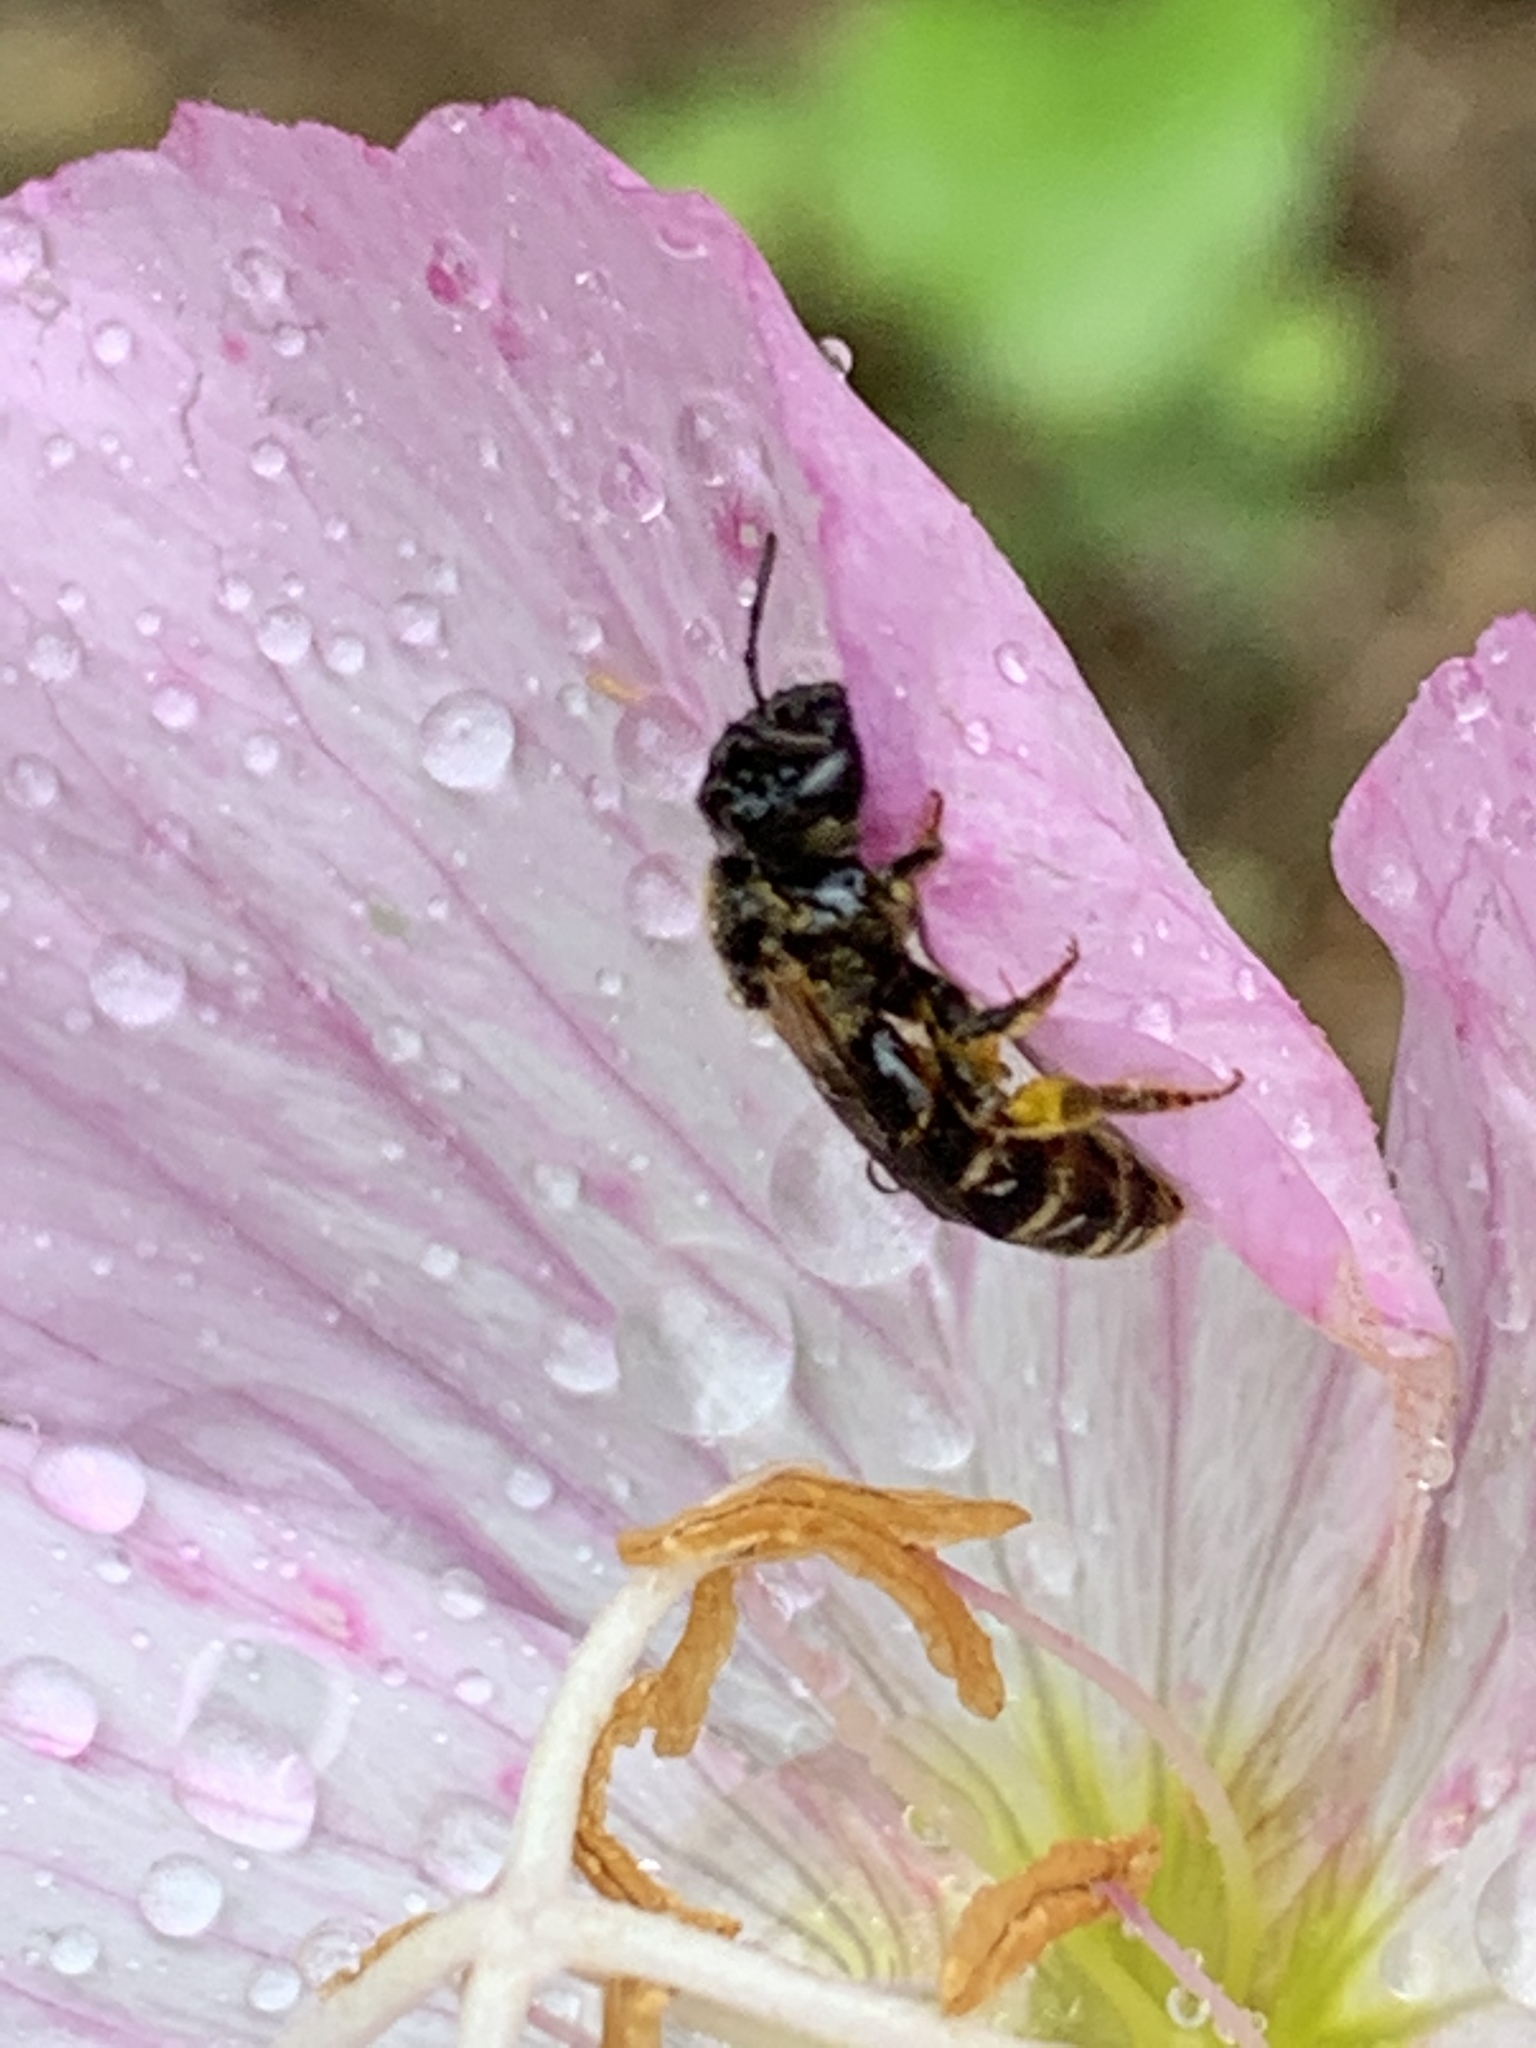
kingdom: Animalia
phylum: Arthropoda
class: Insecta
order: Hymenoptera
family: Halictidae
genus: Halictus
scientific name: Halictus ligatus
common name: Ligated furrow bee
